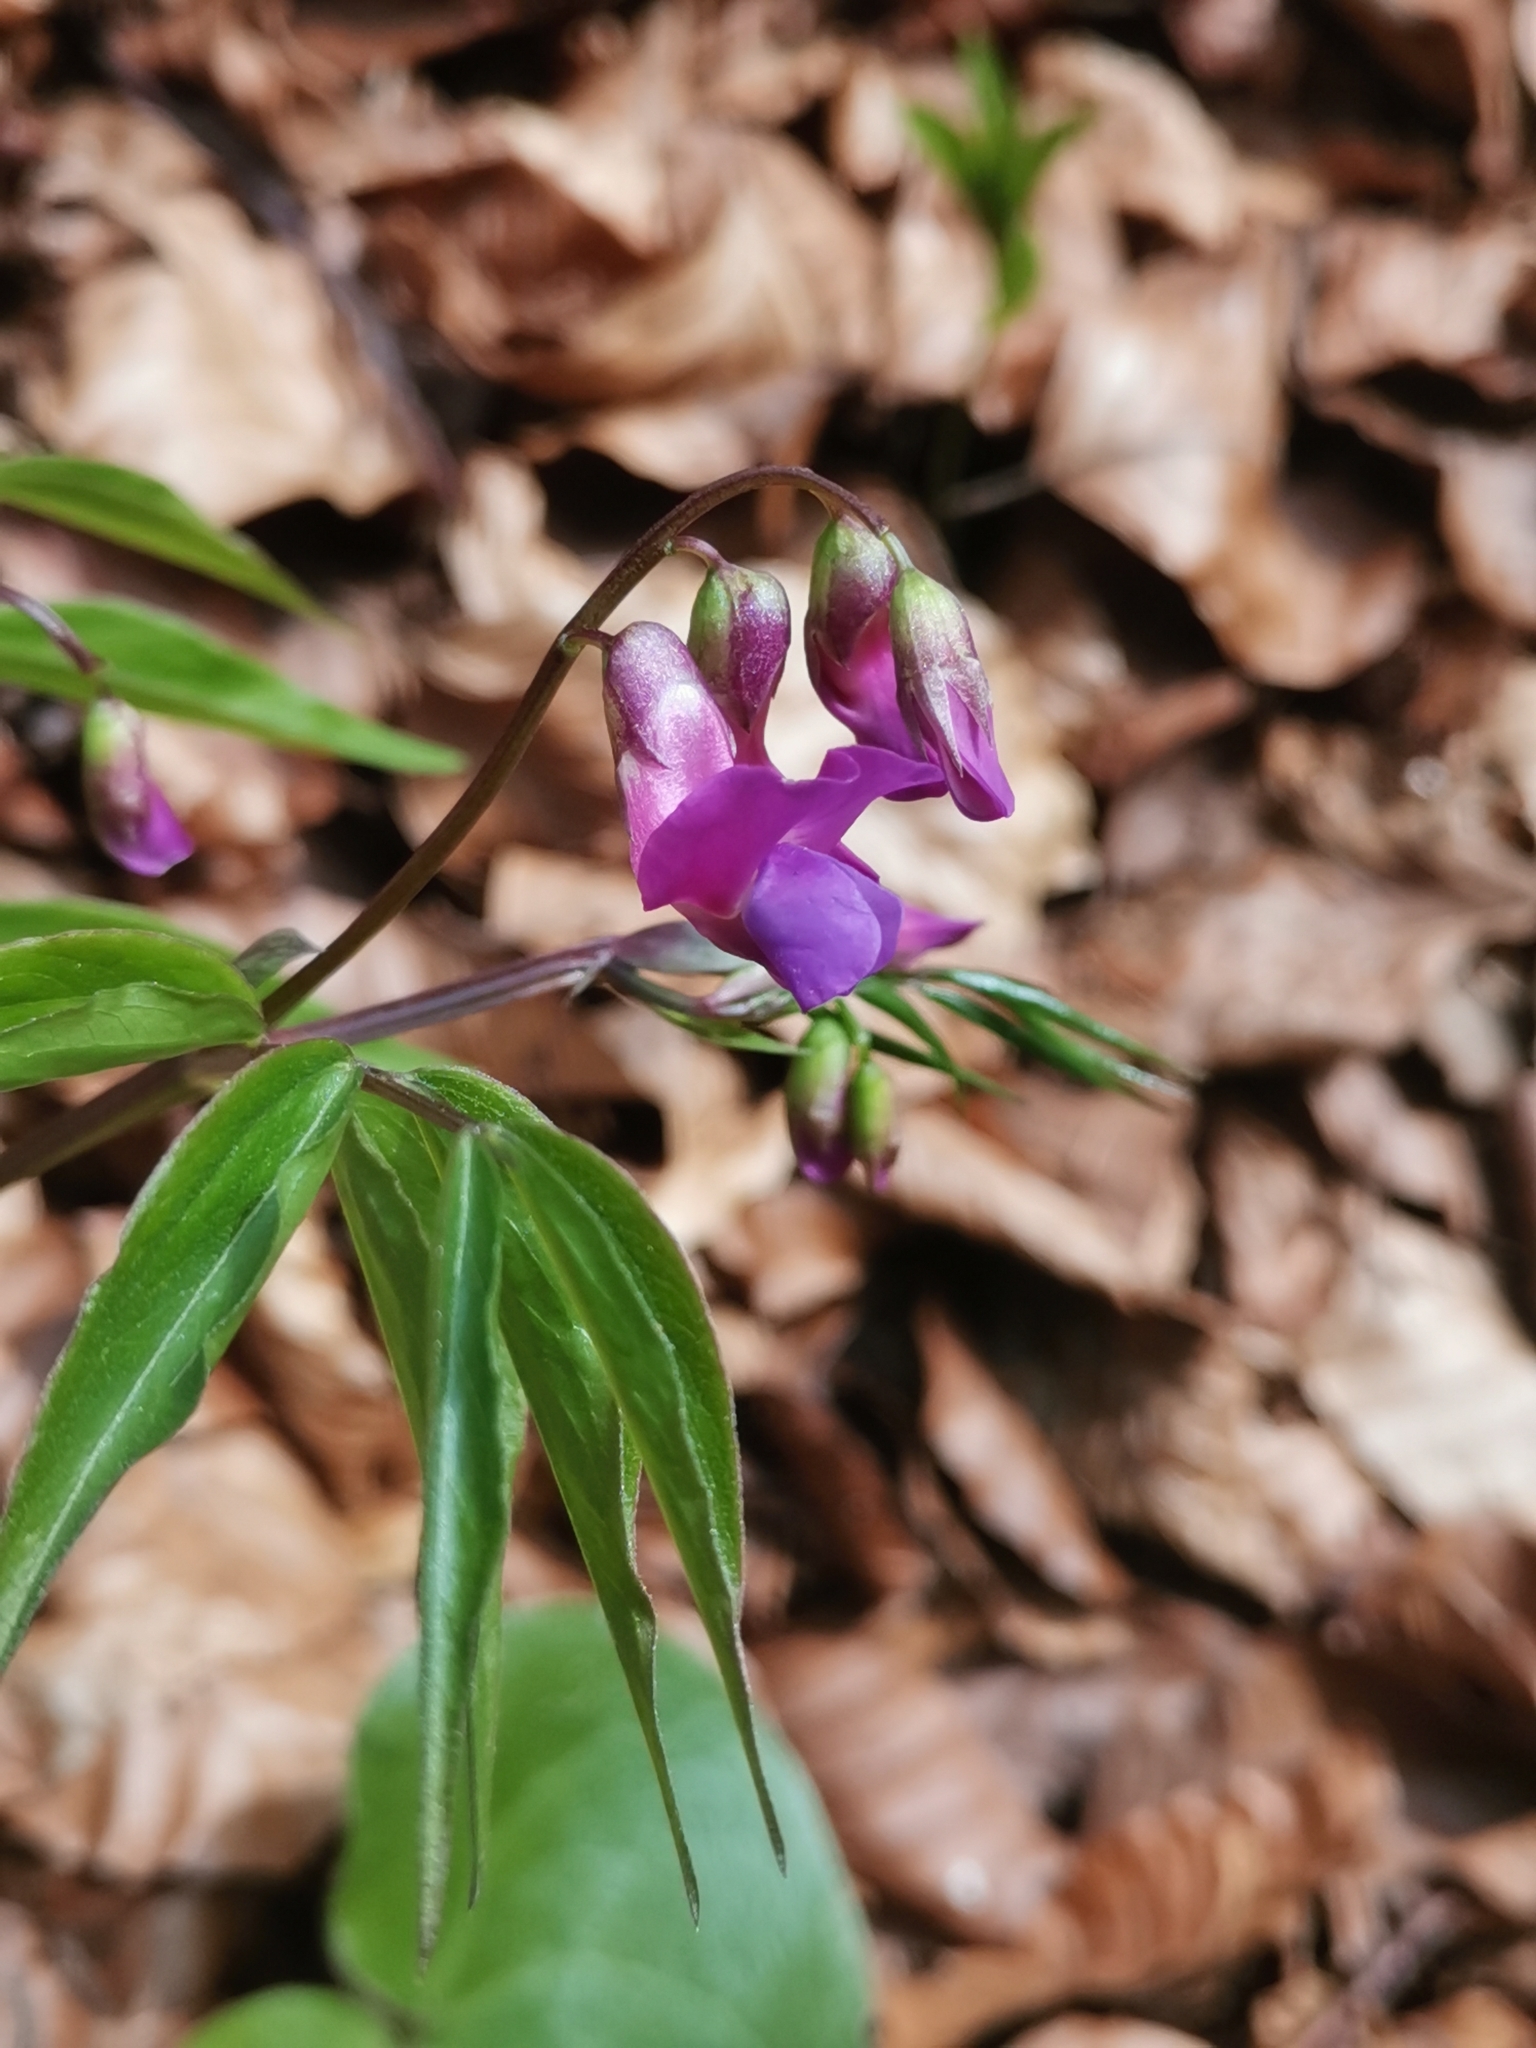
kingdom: Plantae
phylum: Tracheophyta
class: Magnoliopsida
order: Fabales
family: Fabaceae
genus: Lathyrus
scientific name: Lathyrus vernus
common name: Spring pea
